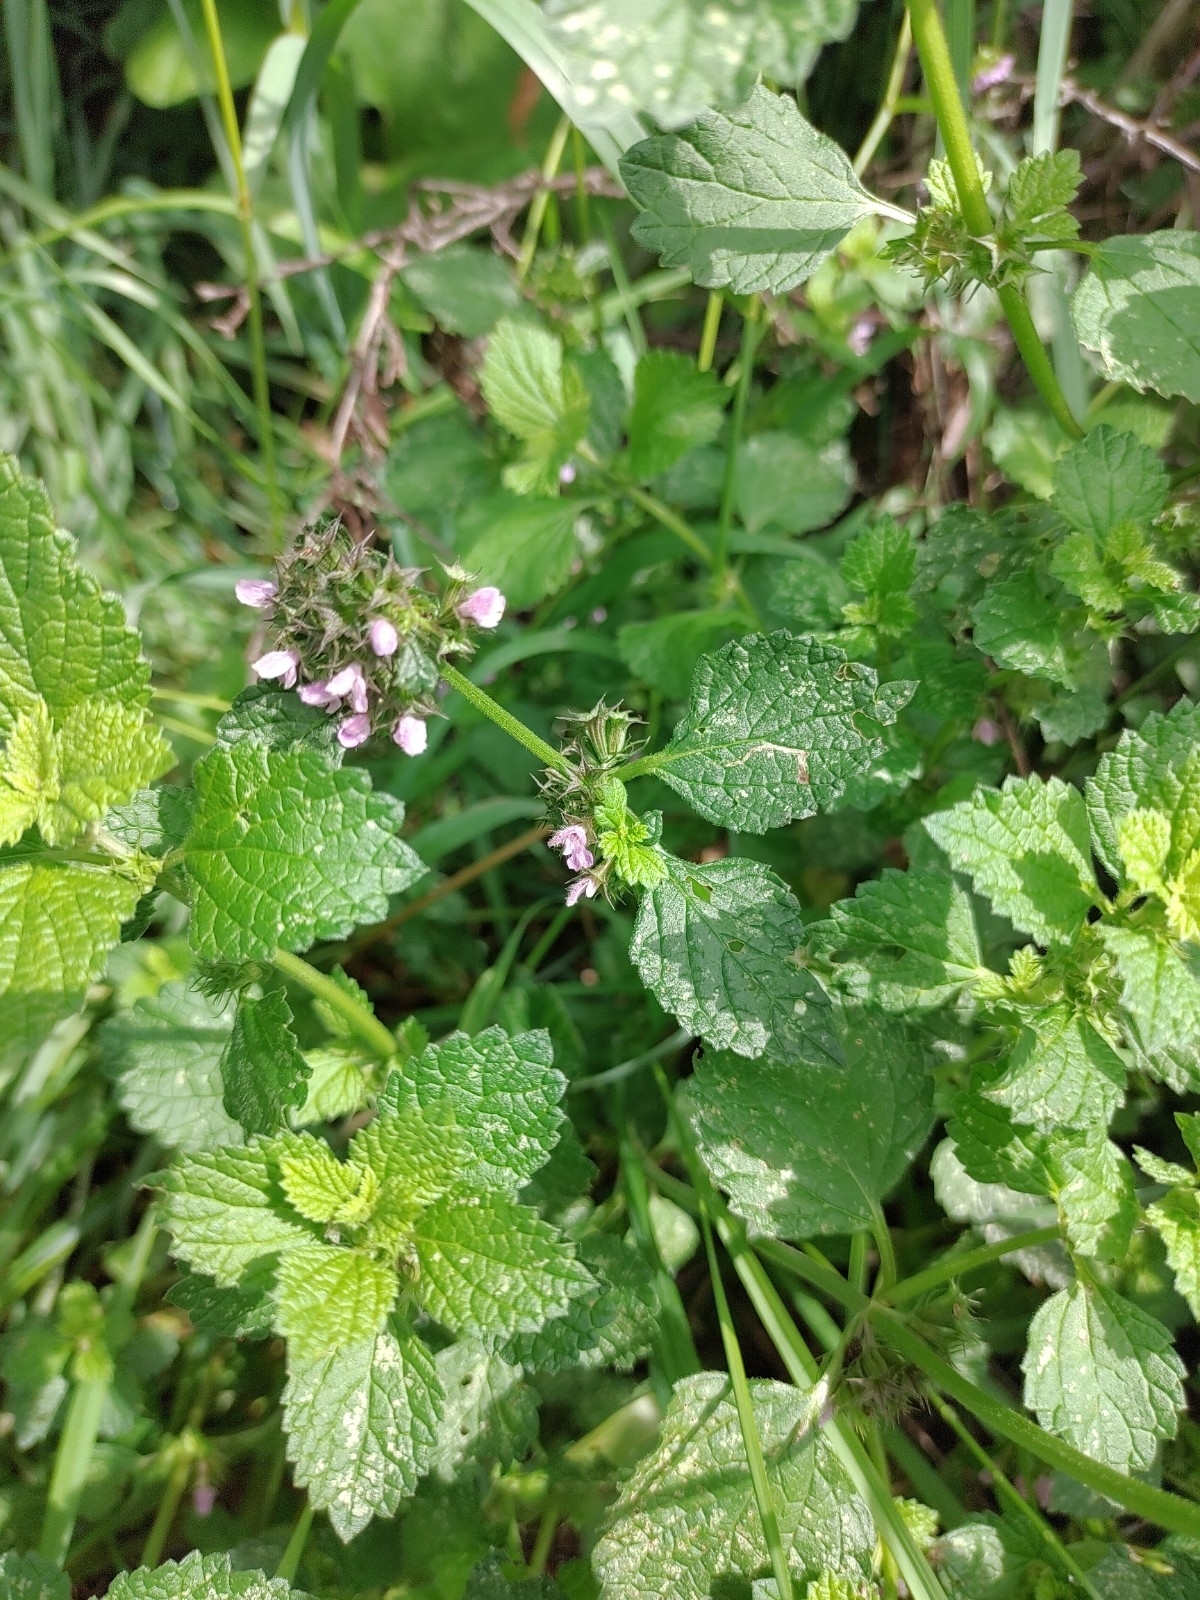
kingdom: Plantae
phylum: Tracheophyta
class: Magnoliopsida
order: Lamiales
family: Lamiaceae
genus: Ballota
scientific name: Ballota nigra
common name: Black horehound
